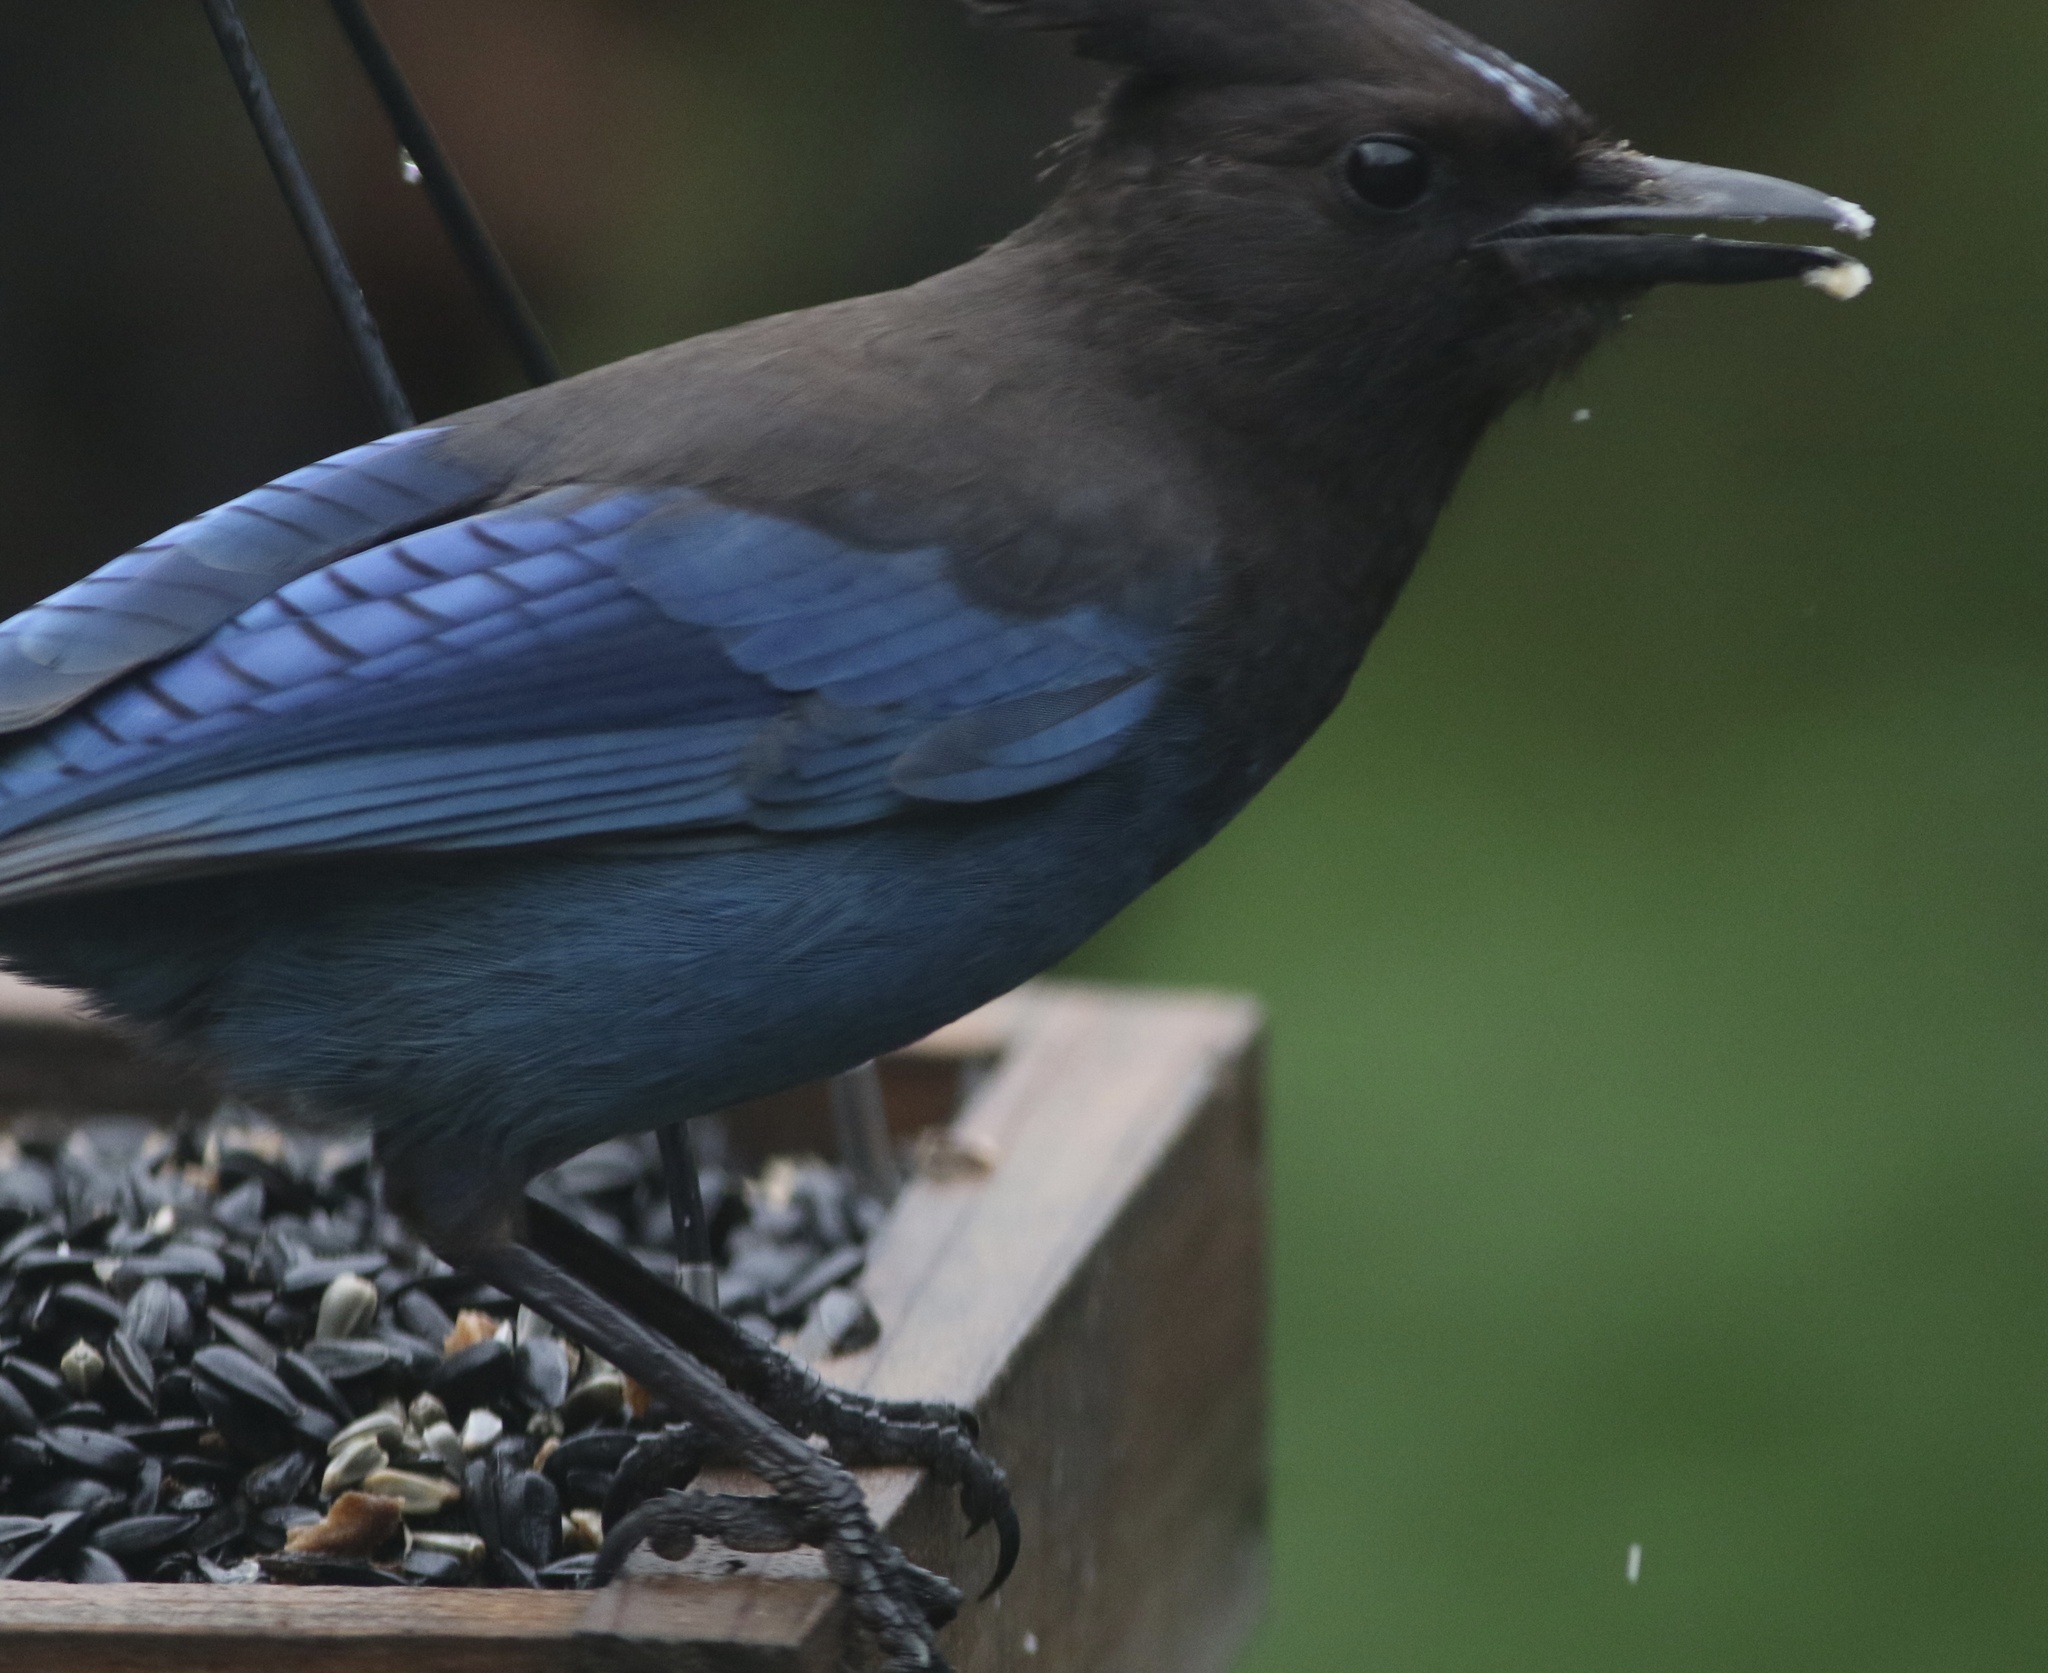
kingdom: Animalia
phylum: Chordata
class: Aves
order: Passeriformes
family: Corvidae
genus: Cyanocitta
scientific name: Cyanocitta stelleri
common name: Steller's jay
